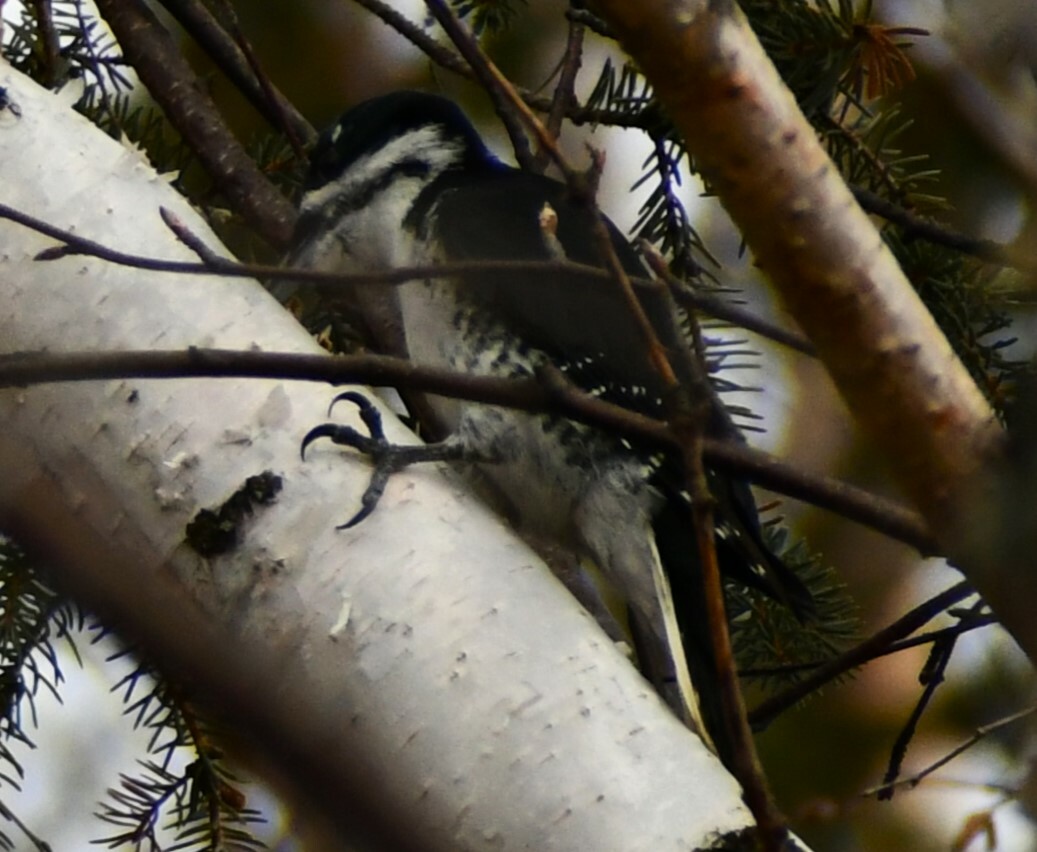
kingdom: Animalia
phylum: Chordata
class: Aves
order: Piciformes
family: Picidae
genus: Picoides
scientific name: Picoides arcticus
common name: Black-backed woodpecker
